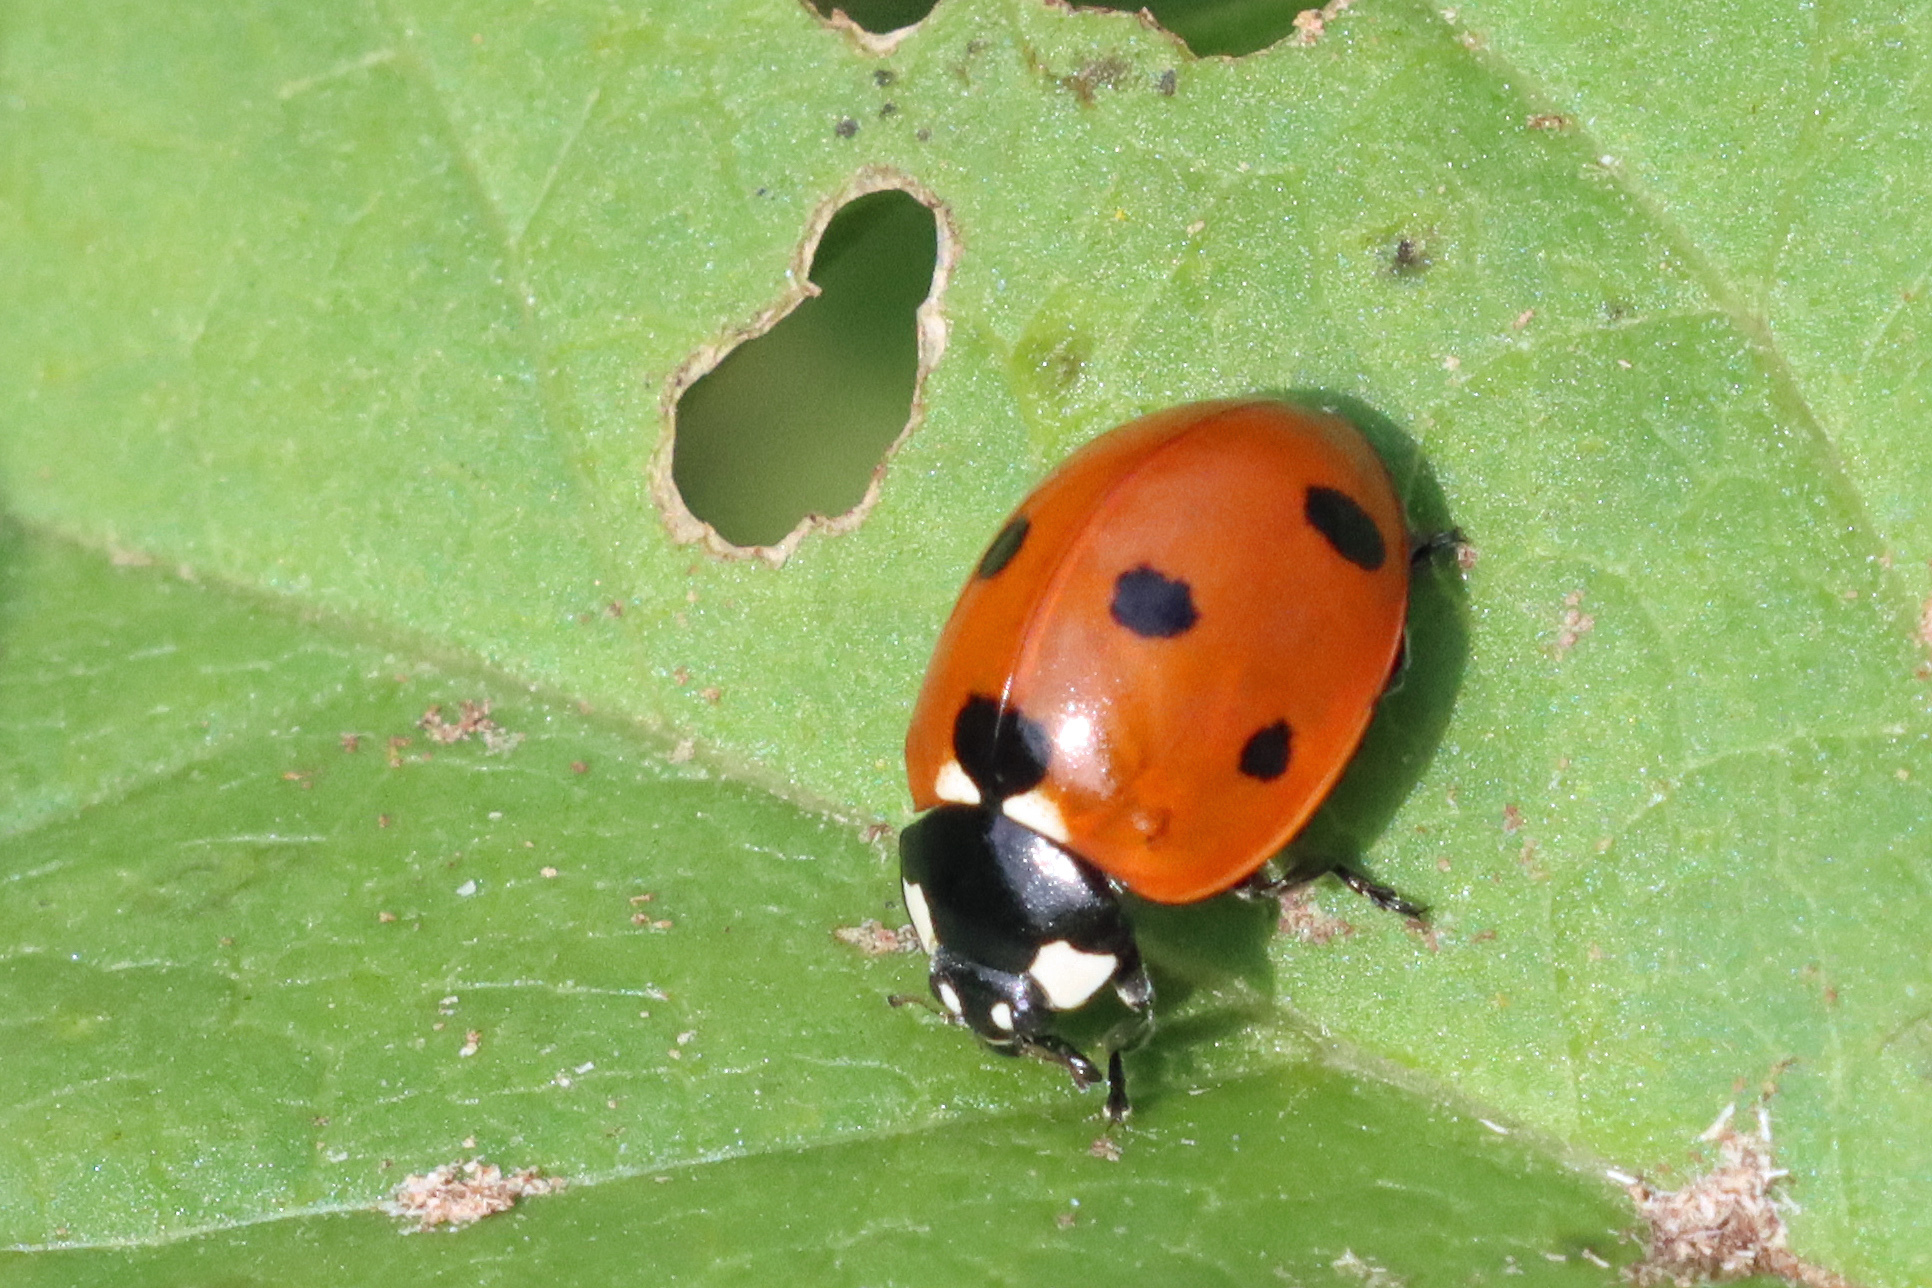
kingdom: Animalia
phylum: Arthropoda
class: Insecta
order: Coleoptera
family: Coccinellidae
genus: Coccinella
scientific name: Coccinella septempunctata
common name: Sevenspotted lady beetle
